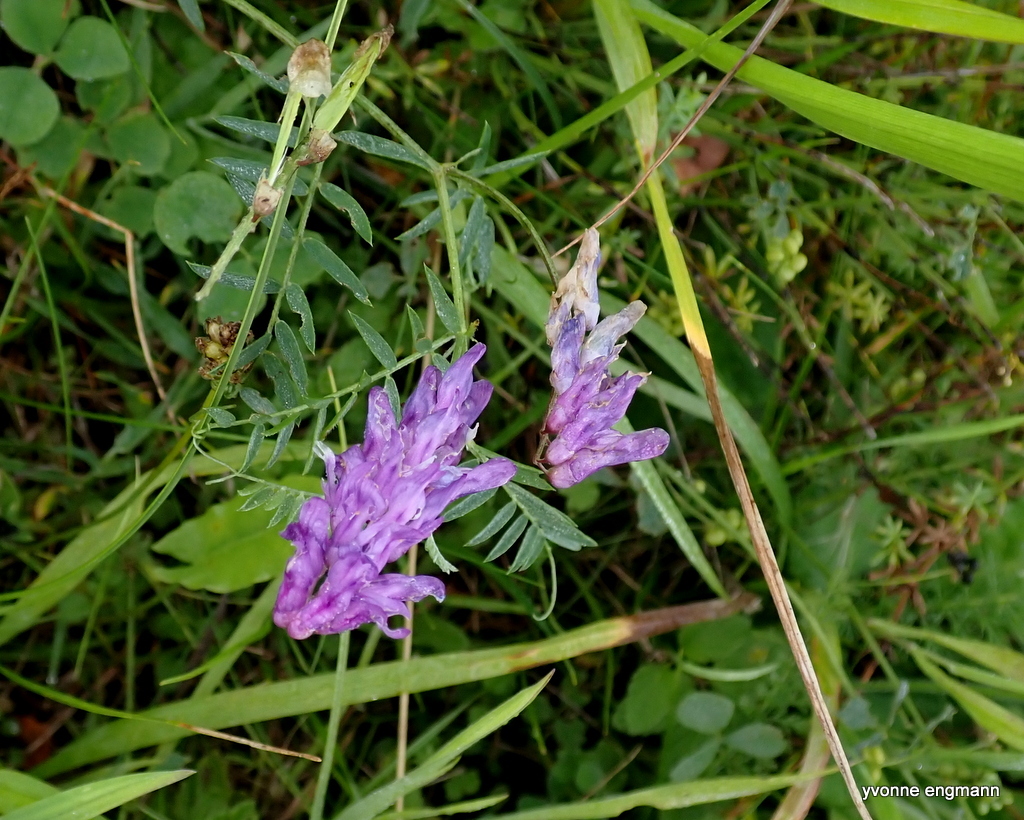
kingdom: Plantae
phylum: Tracheophyta
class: Magnoliopsida
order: Fabales
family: Fabaceae
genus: Vicia
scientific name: Vicia cracca
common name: Bird vetch
